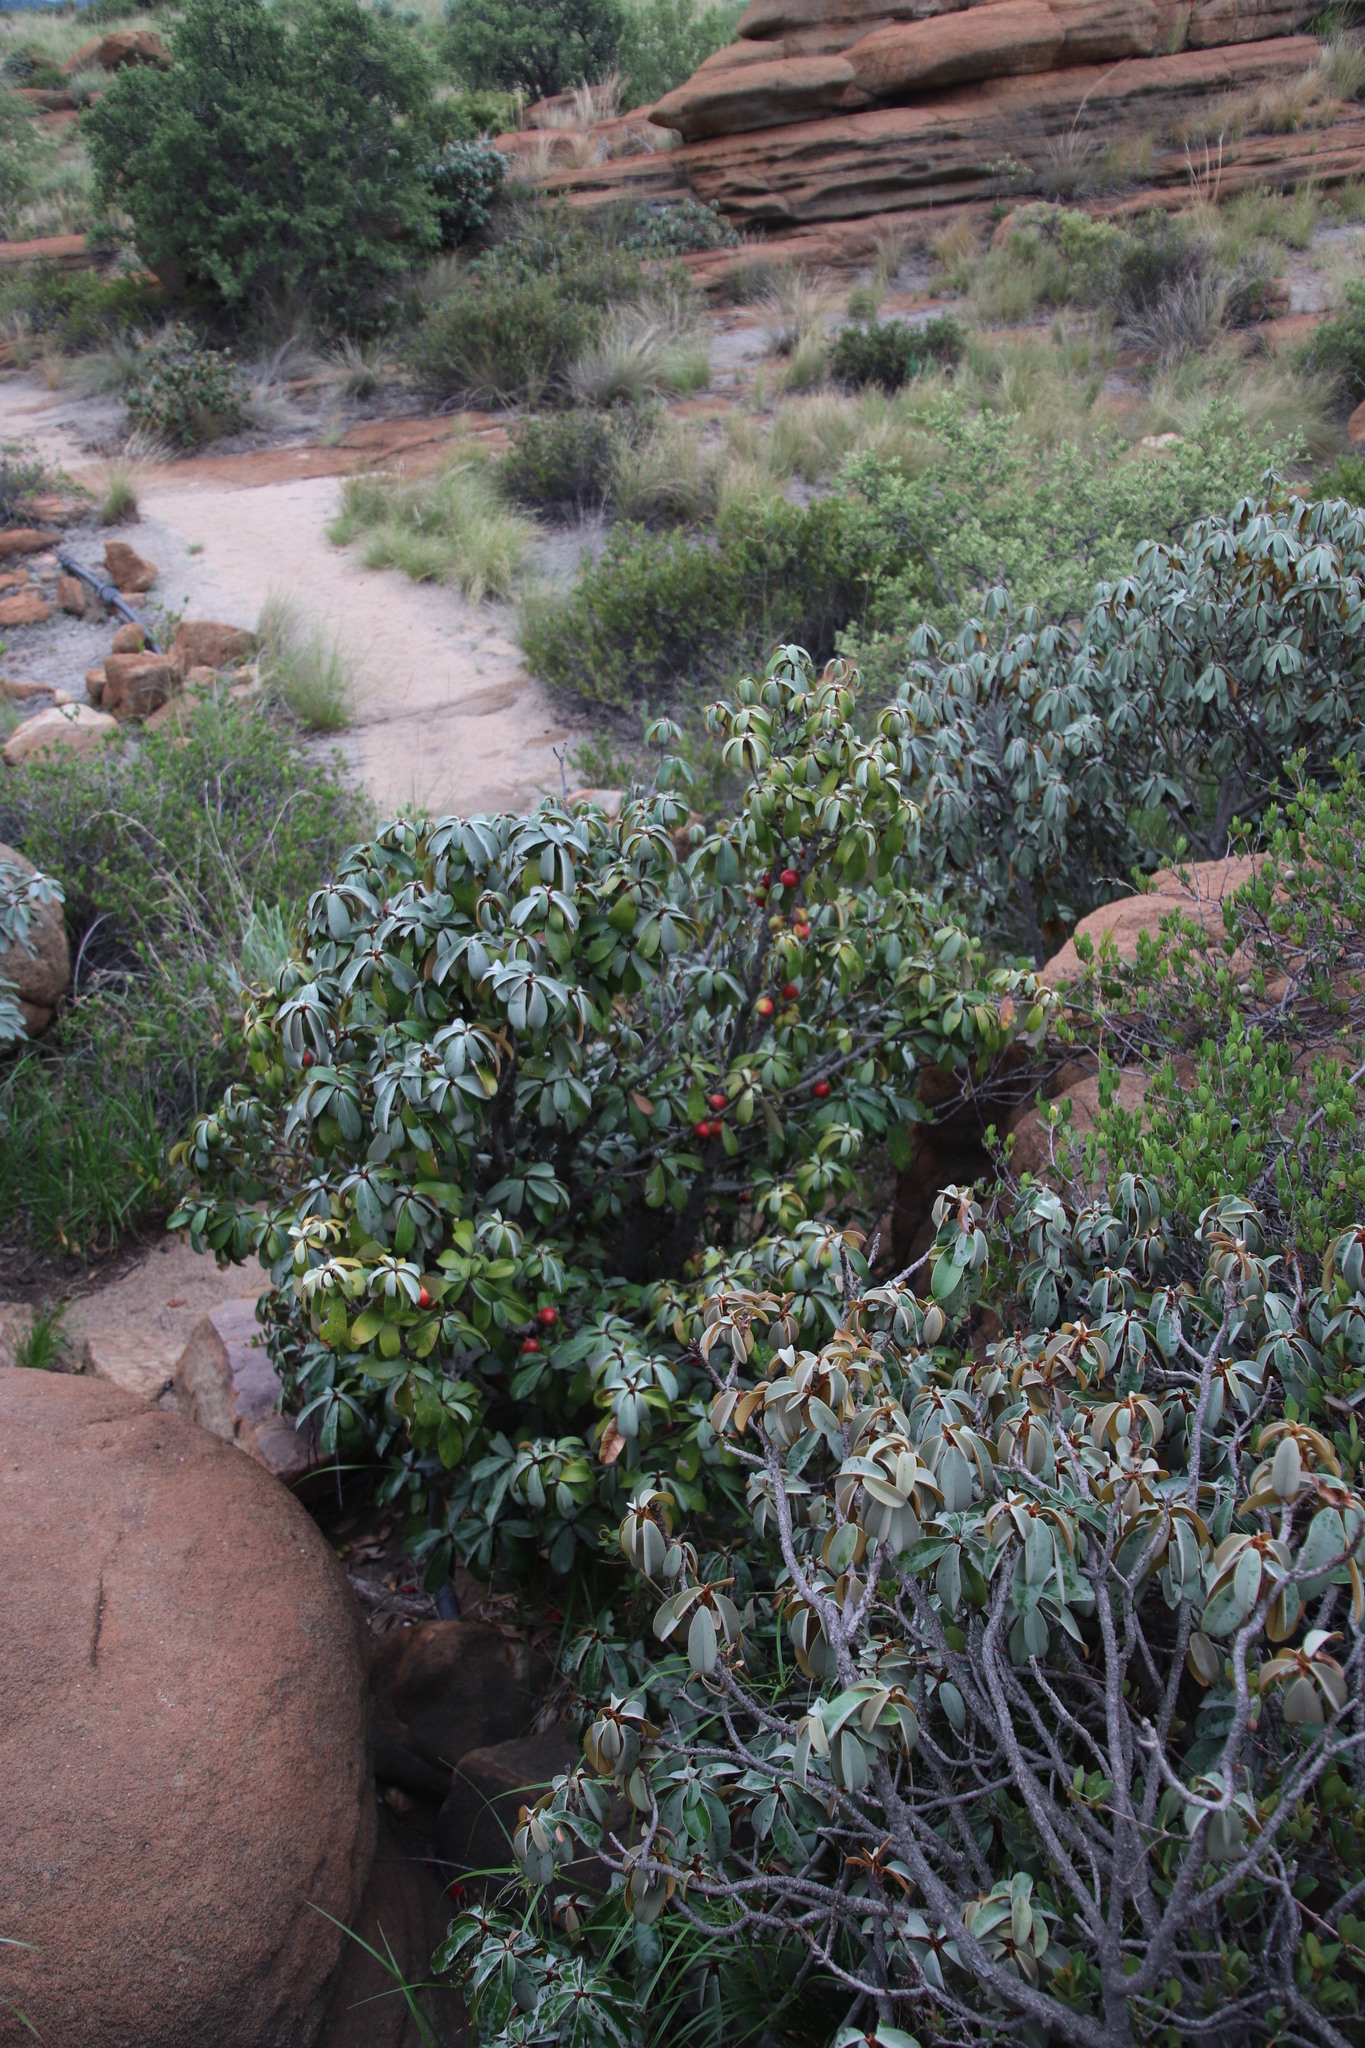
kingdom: Plantae
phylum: Tracheophyta
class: Magnoliopsida
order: Ericales
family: Sapotaceae
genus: Englerophytum
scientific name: Englerophytum magalismontanum
